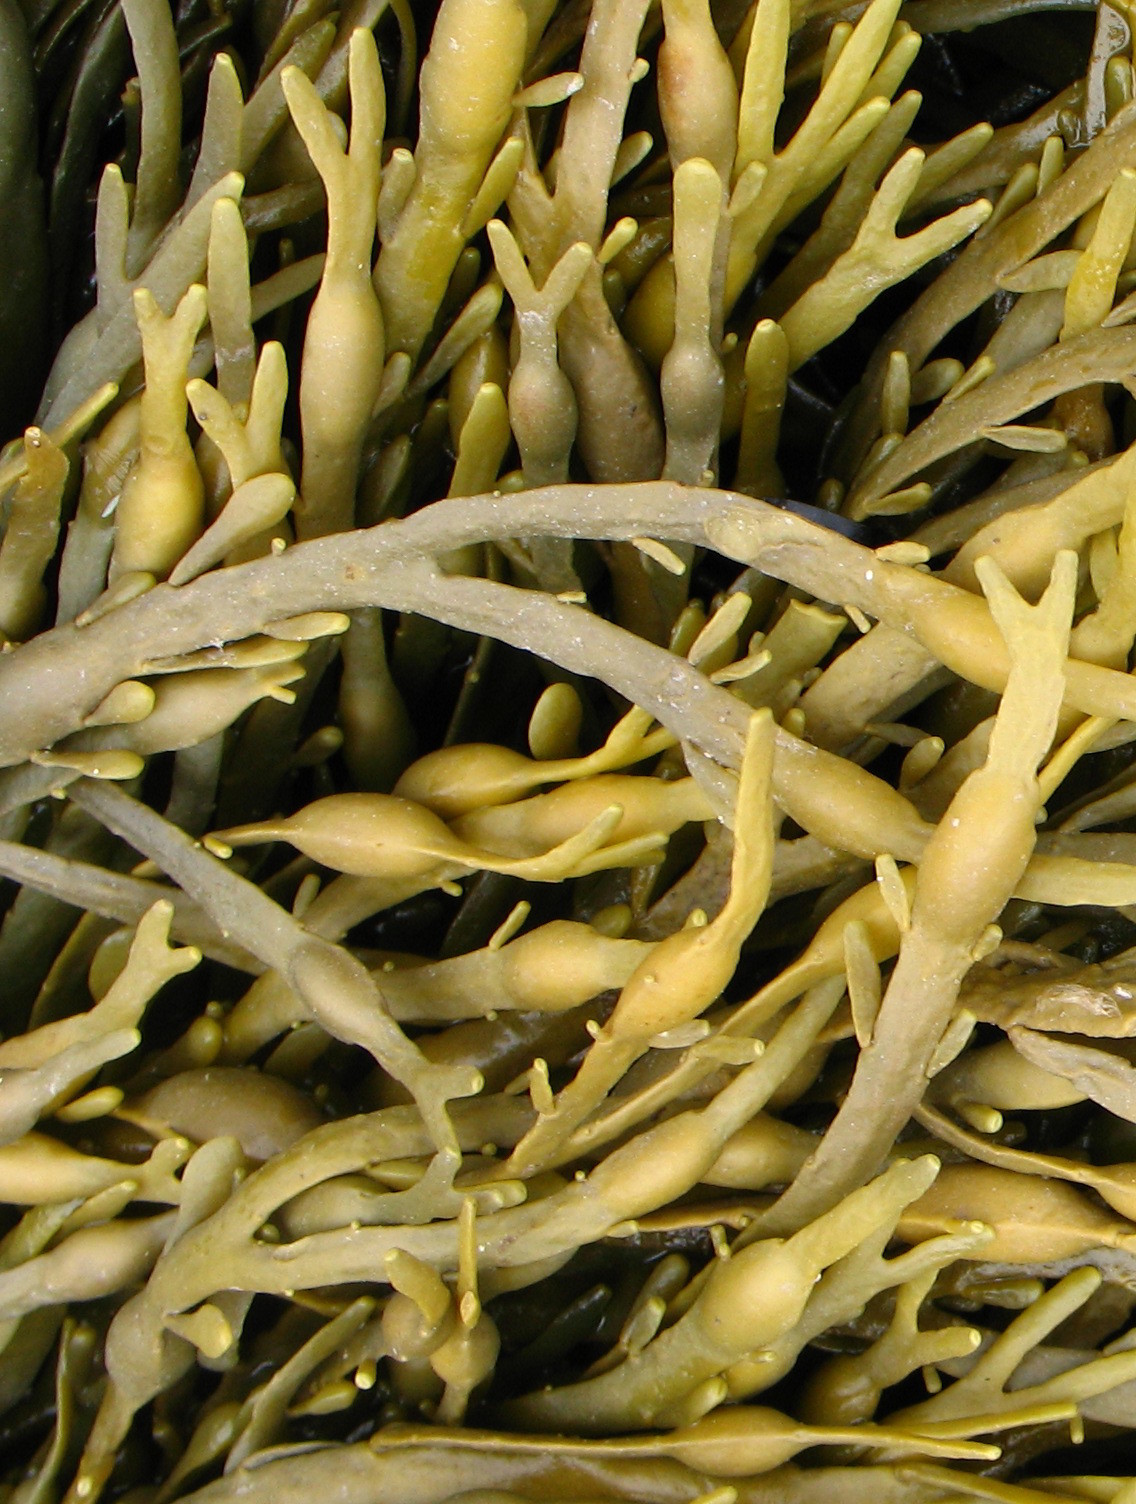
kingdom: Chromista
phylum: Ochrophyta
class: Phaeophyceae
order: Fucales
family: Fucaceae
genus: Ascophyllum
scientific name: Ascophyllum nodosum
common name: Knotted wrack
